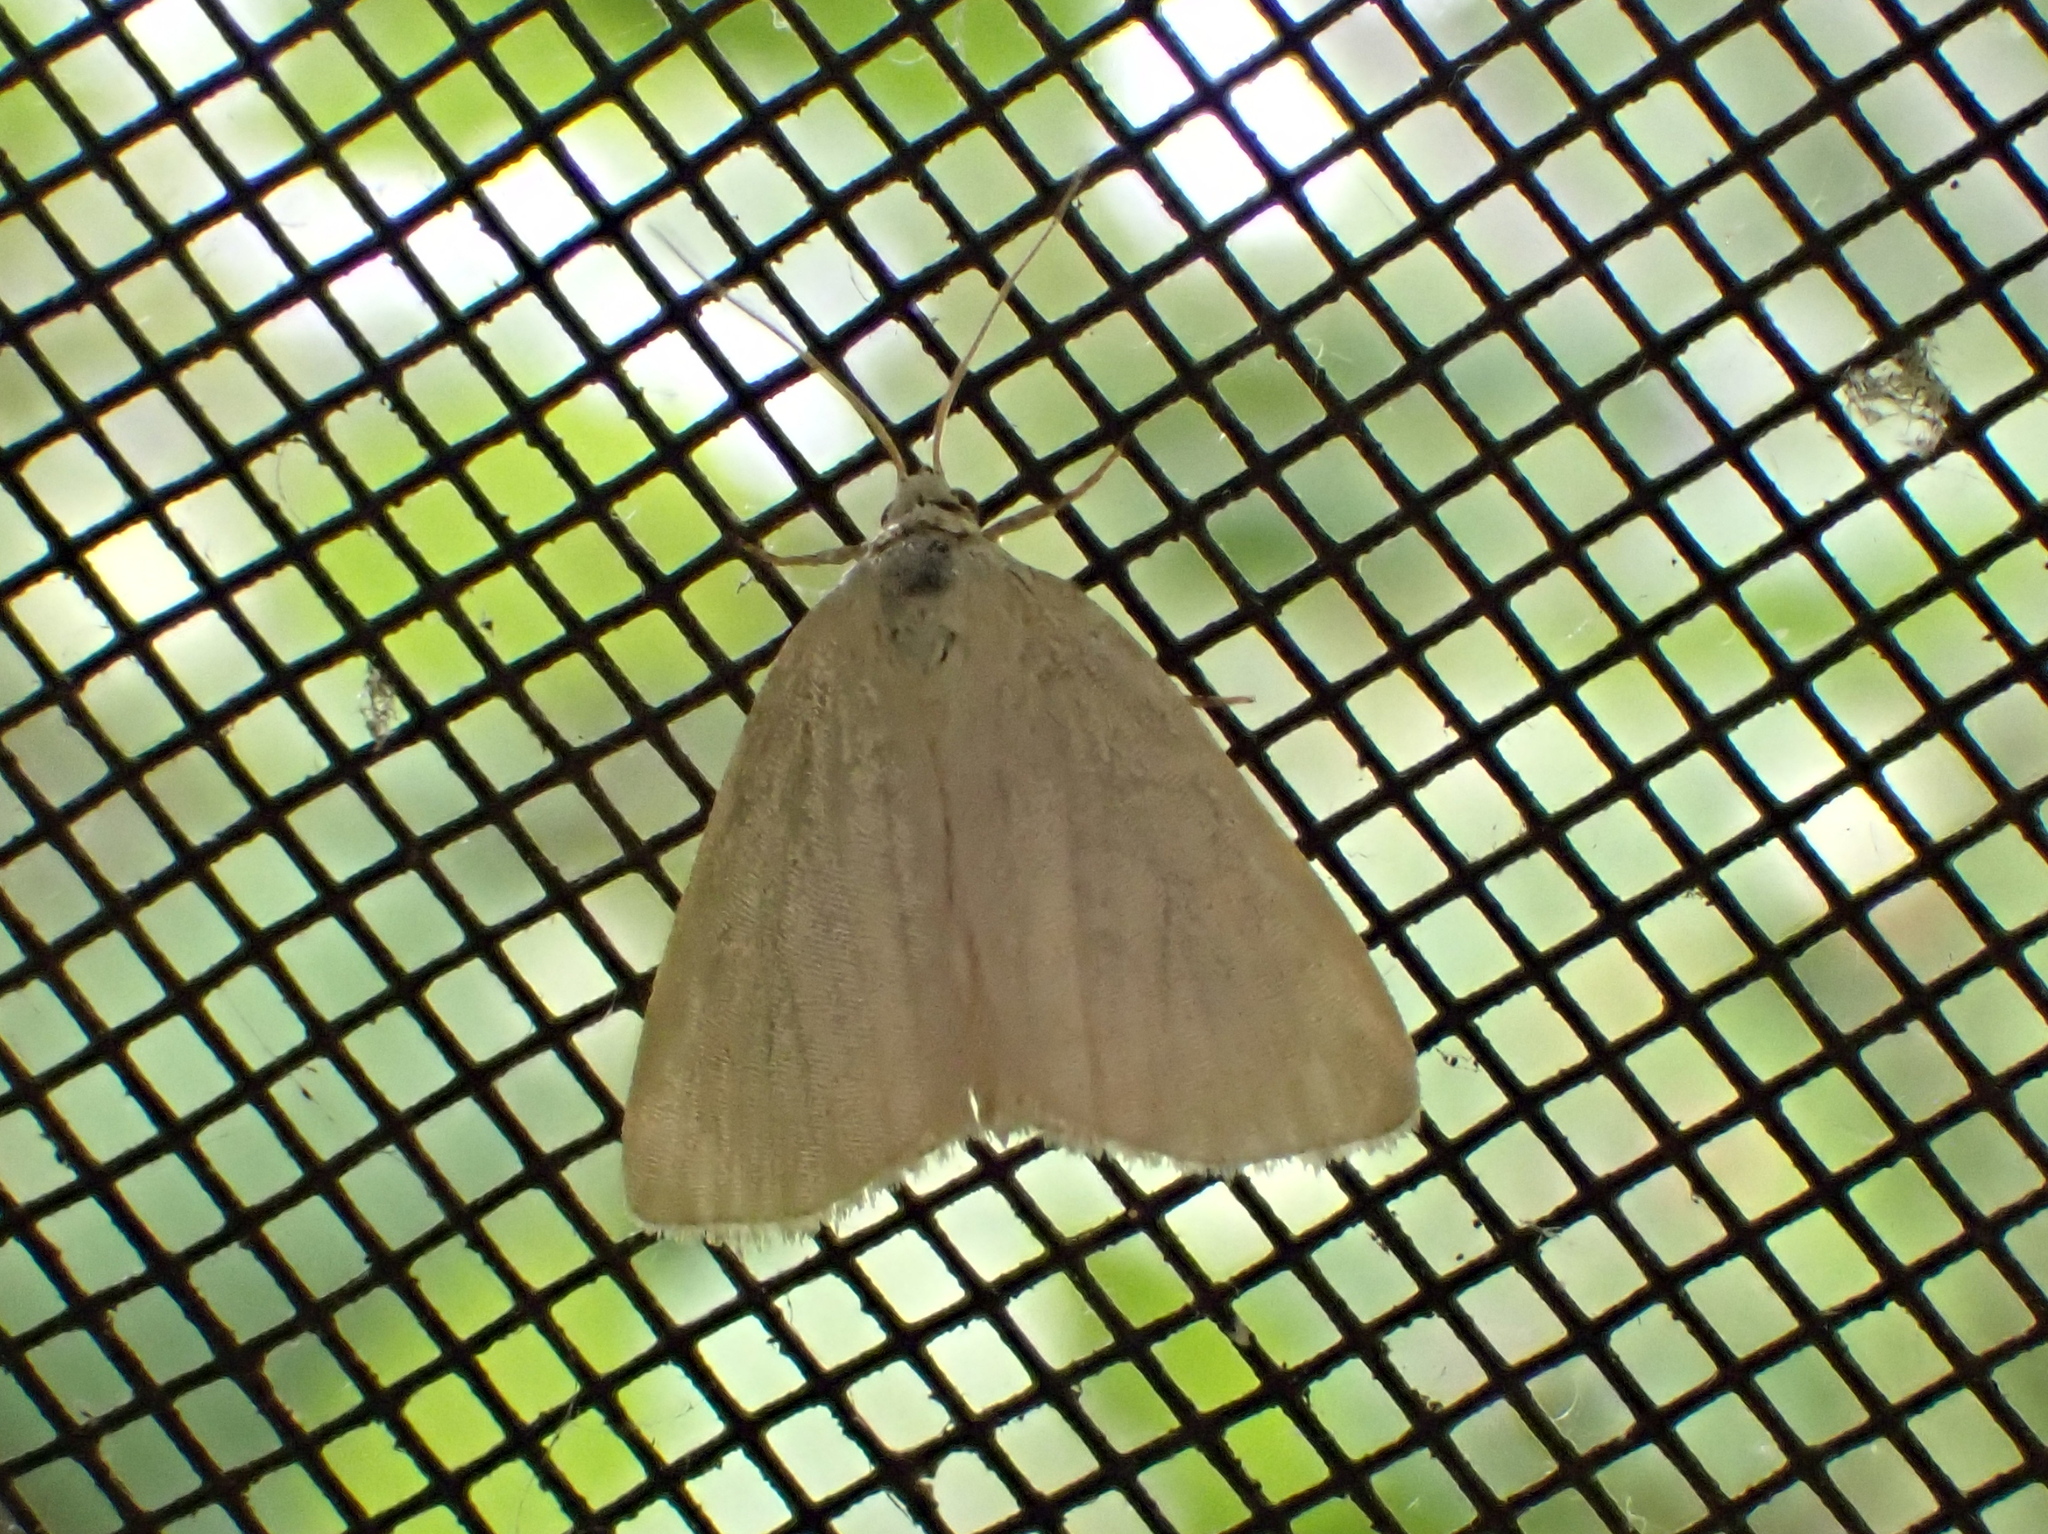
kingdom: Animalia
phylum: Arthropoda
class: Insecta
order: Lepidoptera
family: Noctuidae
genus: Protodeltote
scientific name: Protodeltote albidula
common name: Pale glyph
